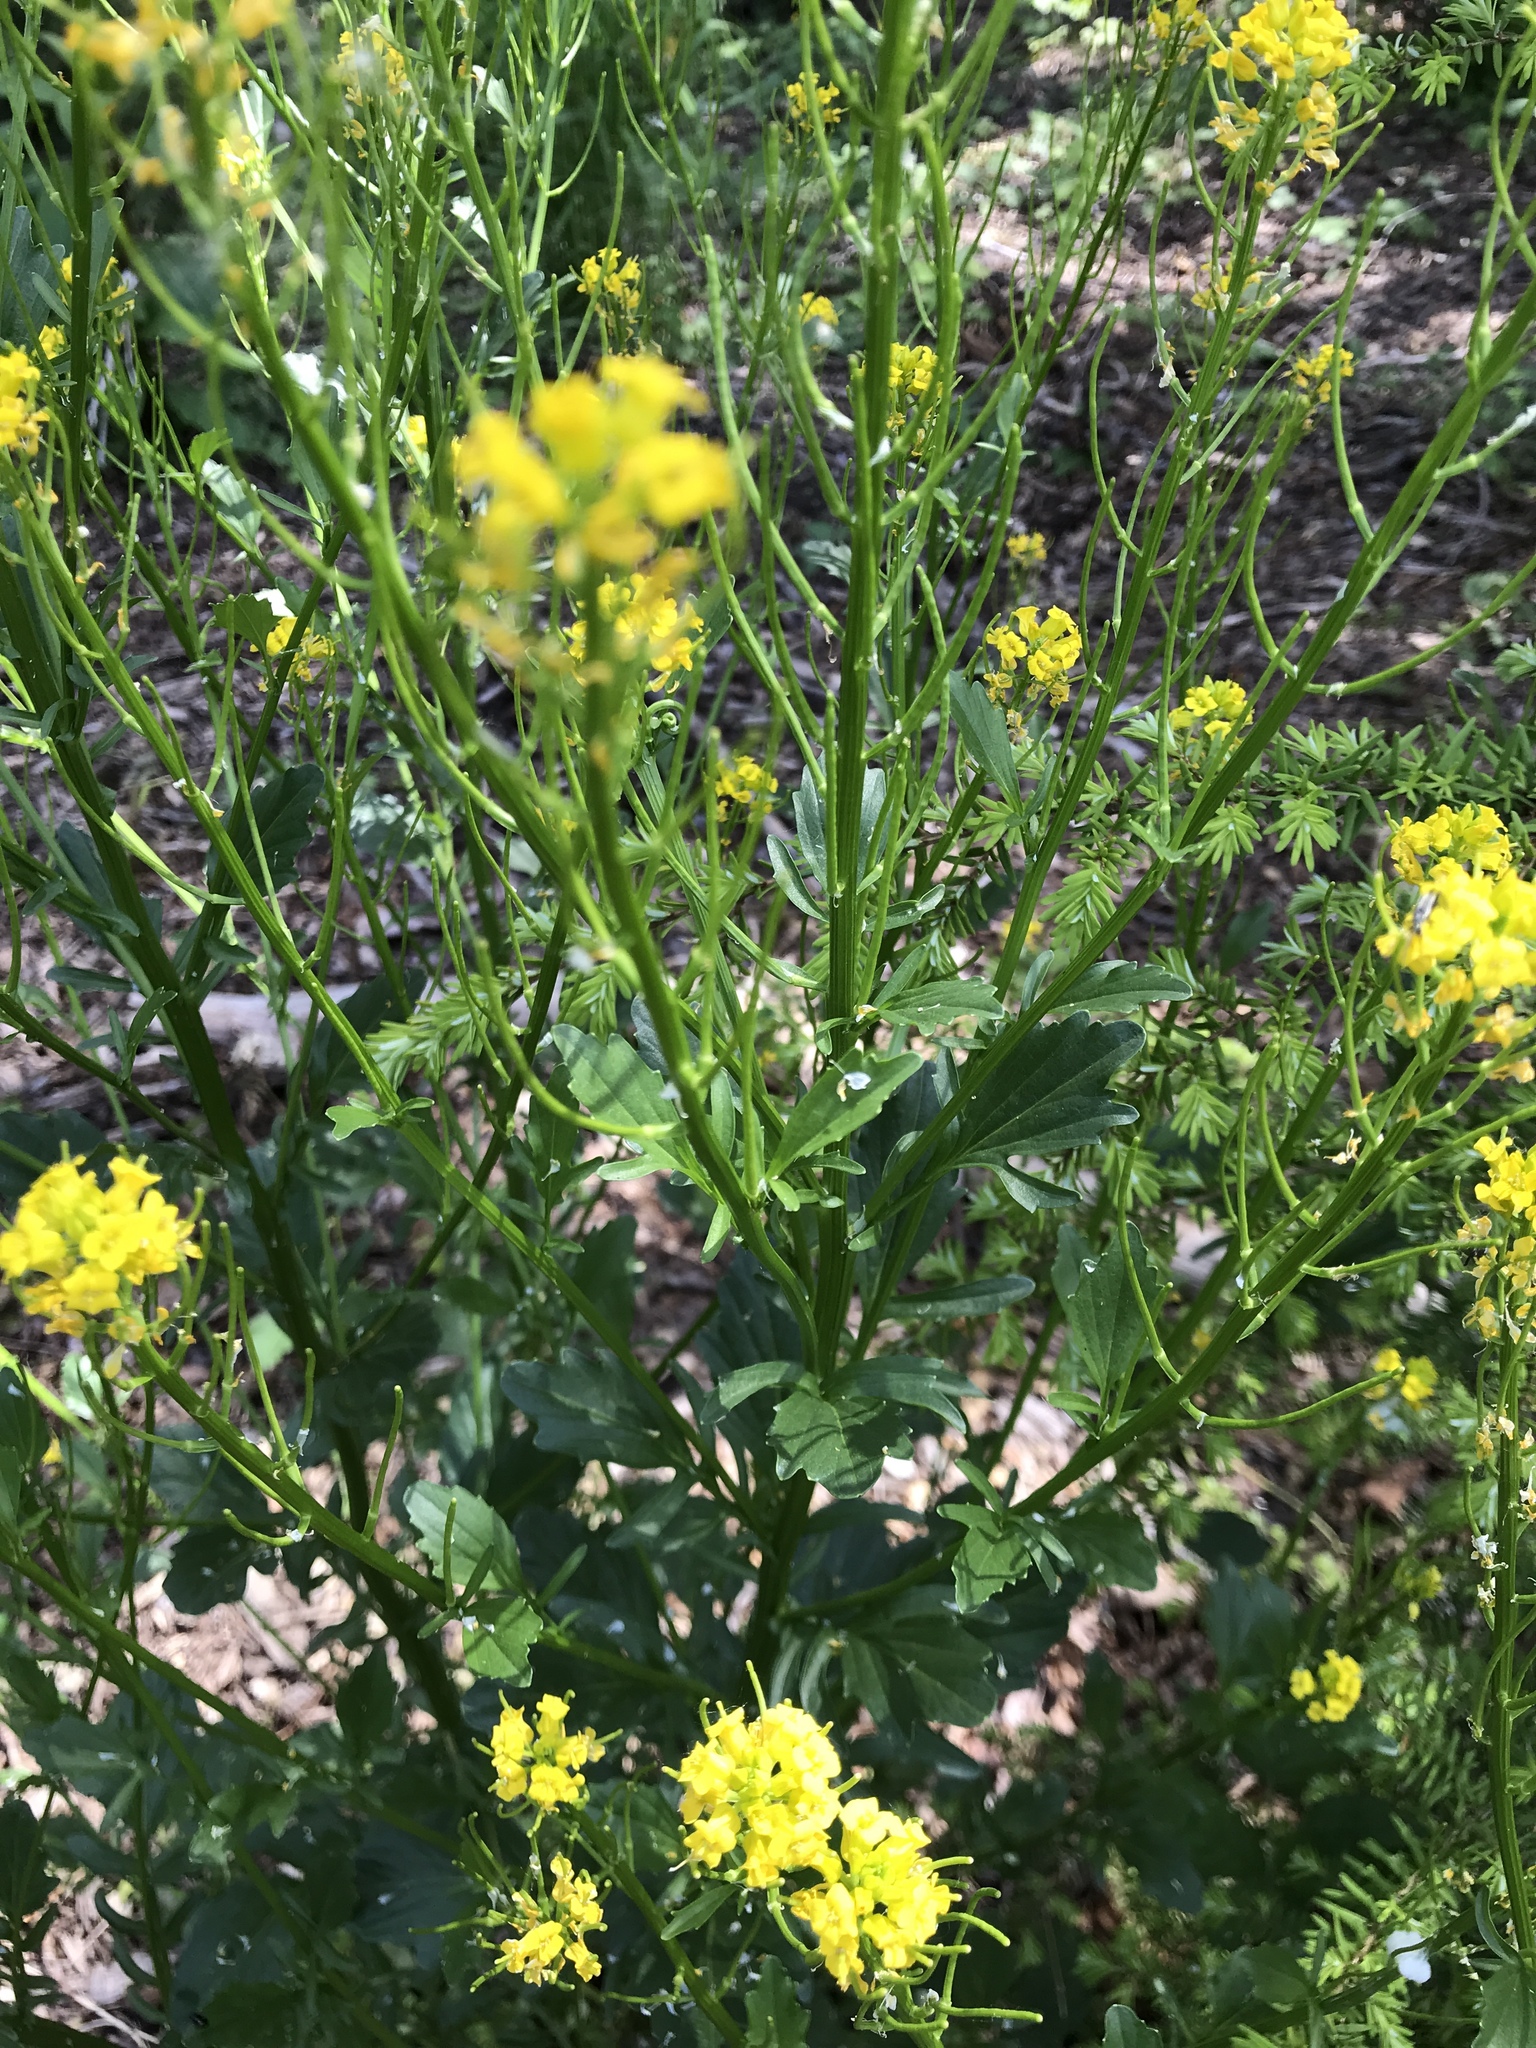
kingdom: Plantae
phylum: Tracheophyta
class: Magnoliopsida
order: Brassicales
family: Brassicaceae
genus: Barbarea
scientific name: Barbarea orthoceras
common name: American wintercress
